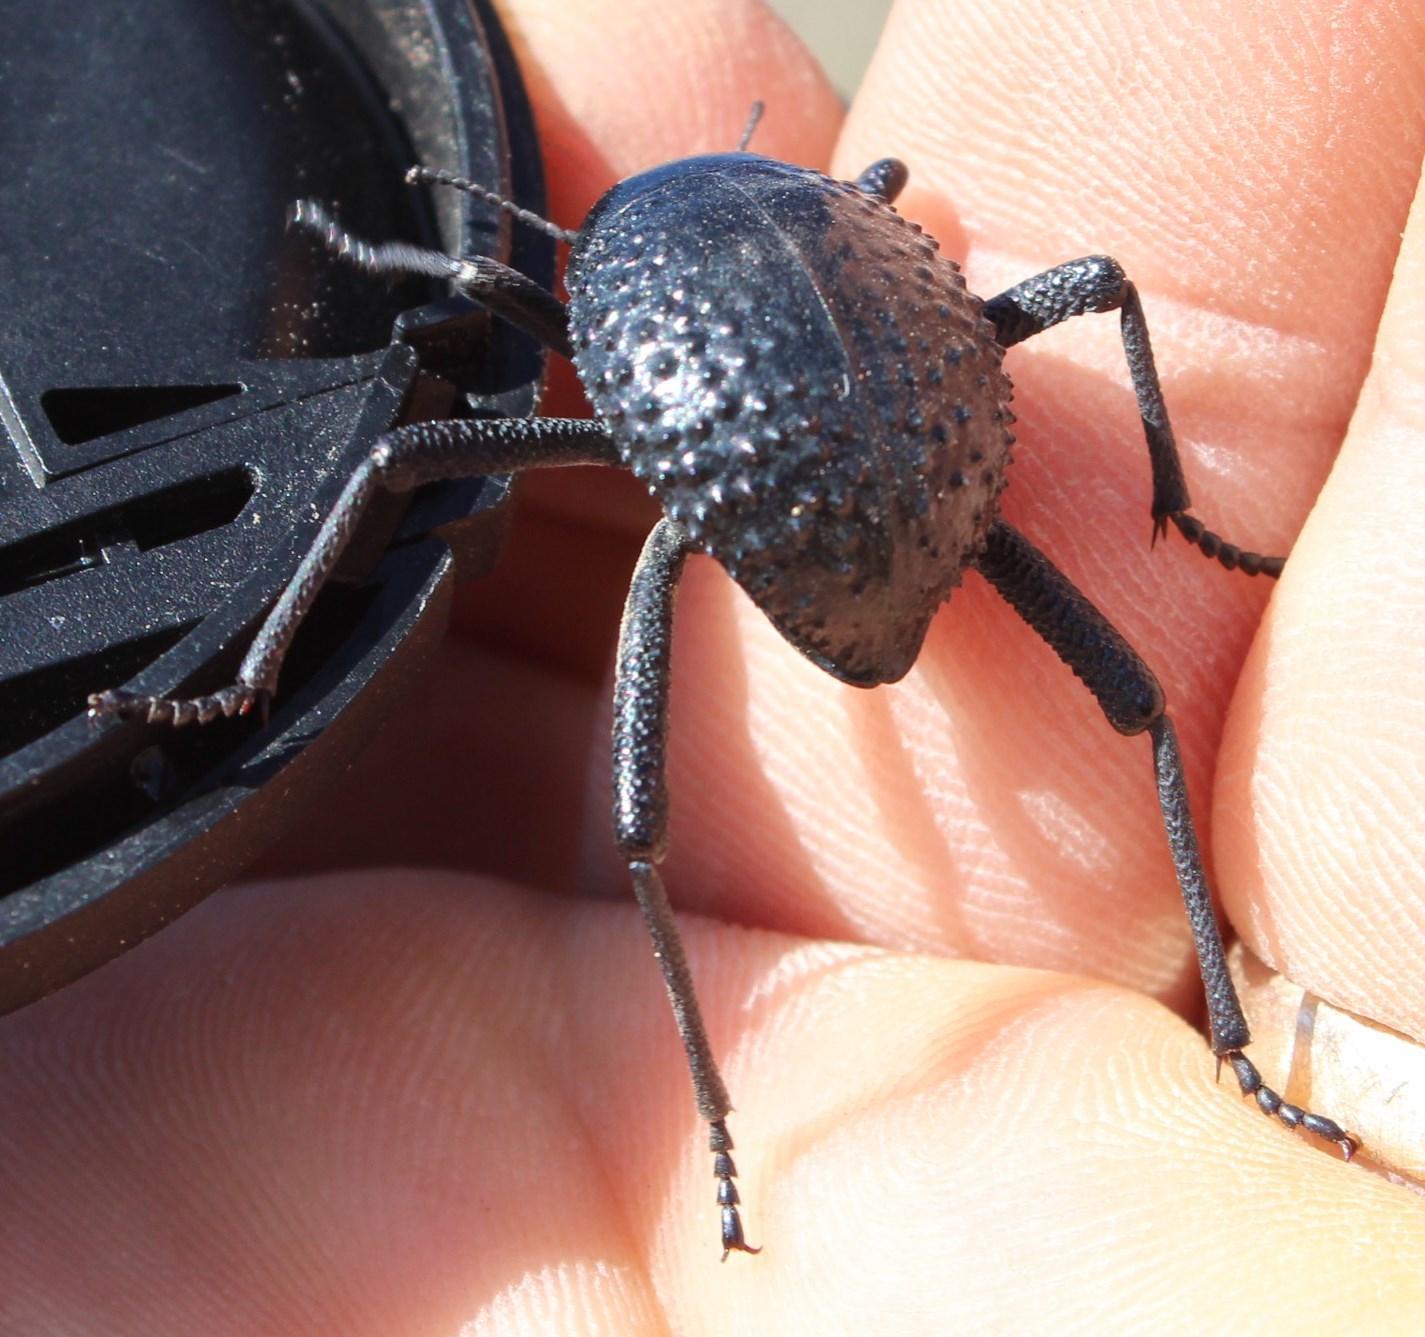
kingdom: Animalia
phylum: Arthropoda
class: Insecta
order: Coleoptera
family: Tenebrionidae
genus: Adesmia
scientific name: Adesmia
